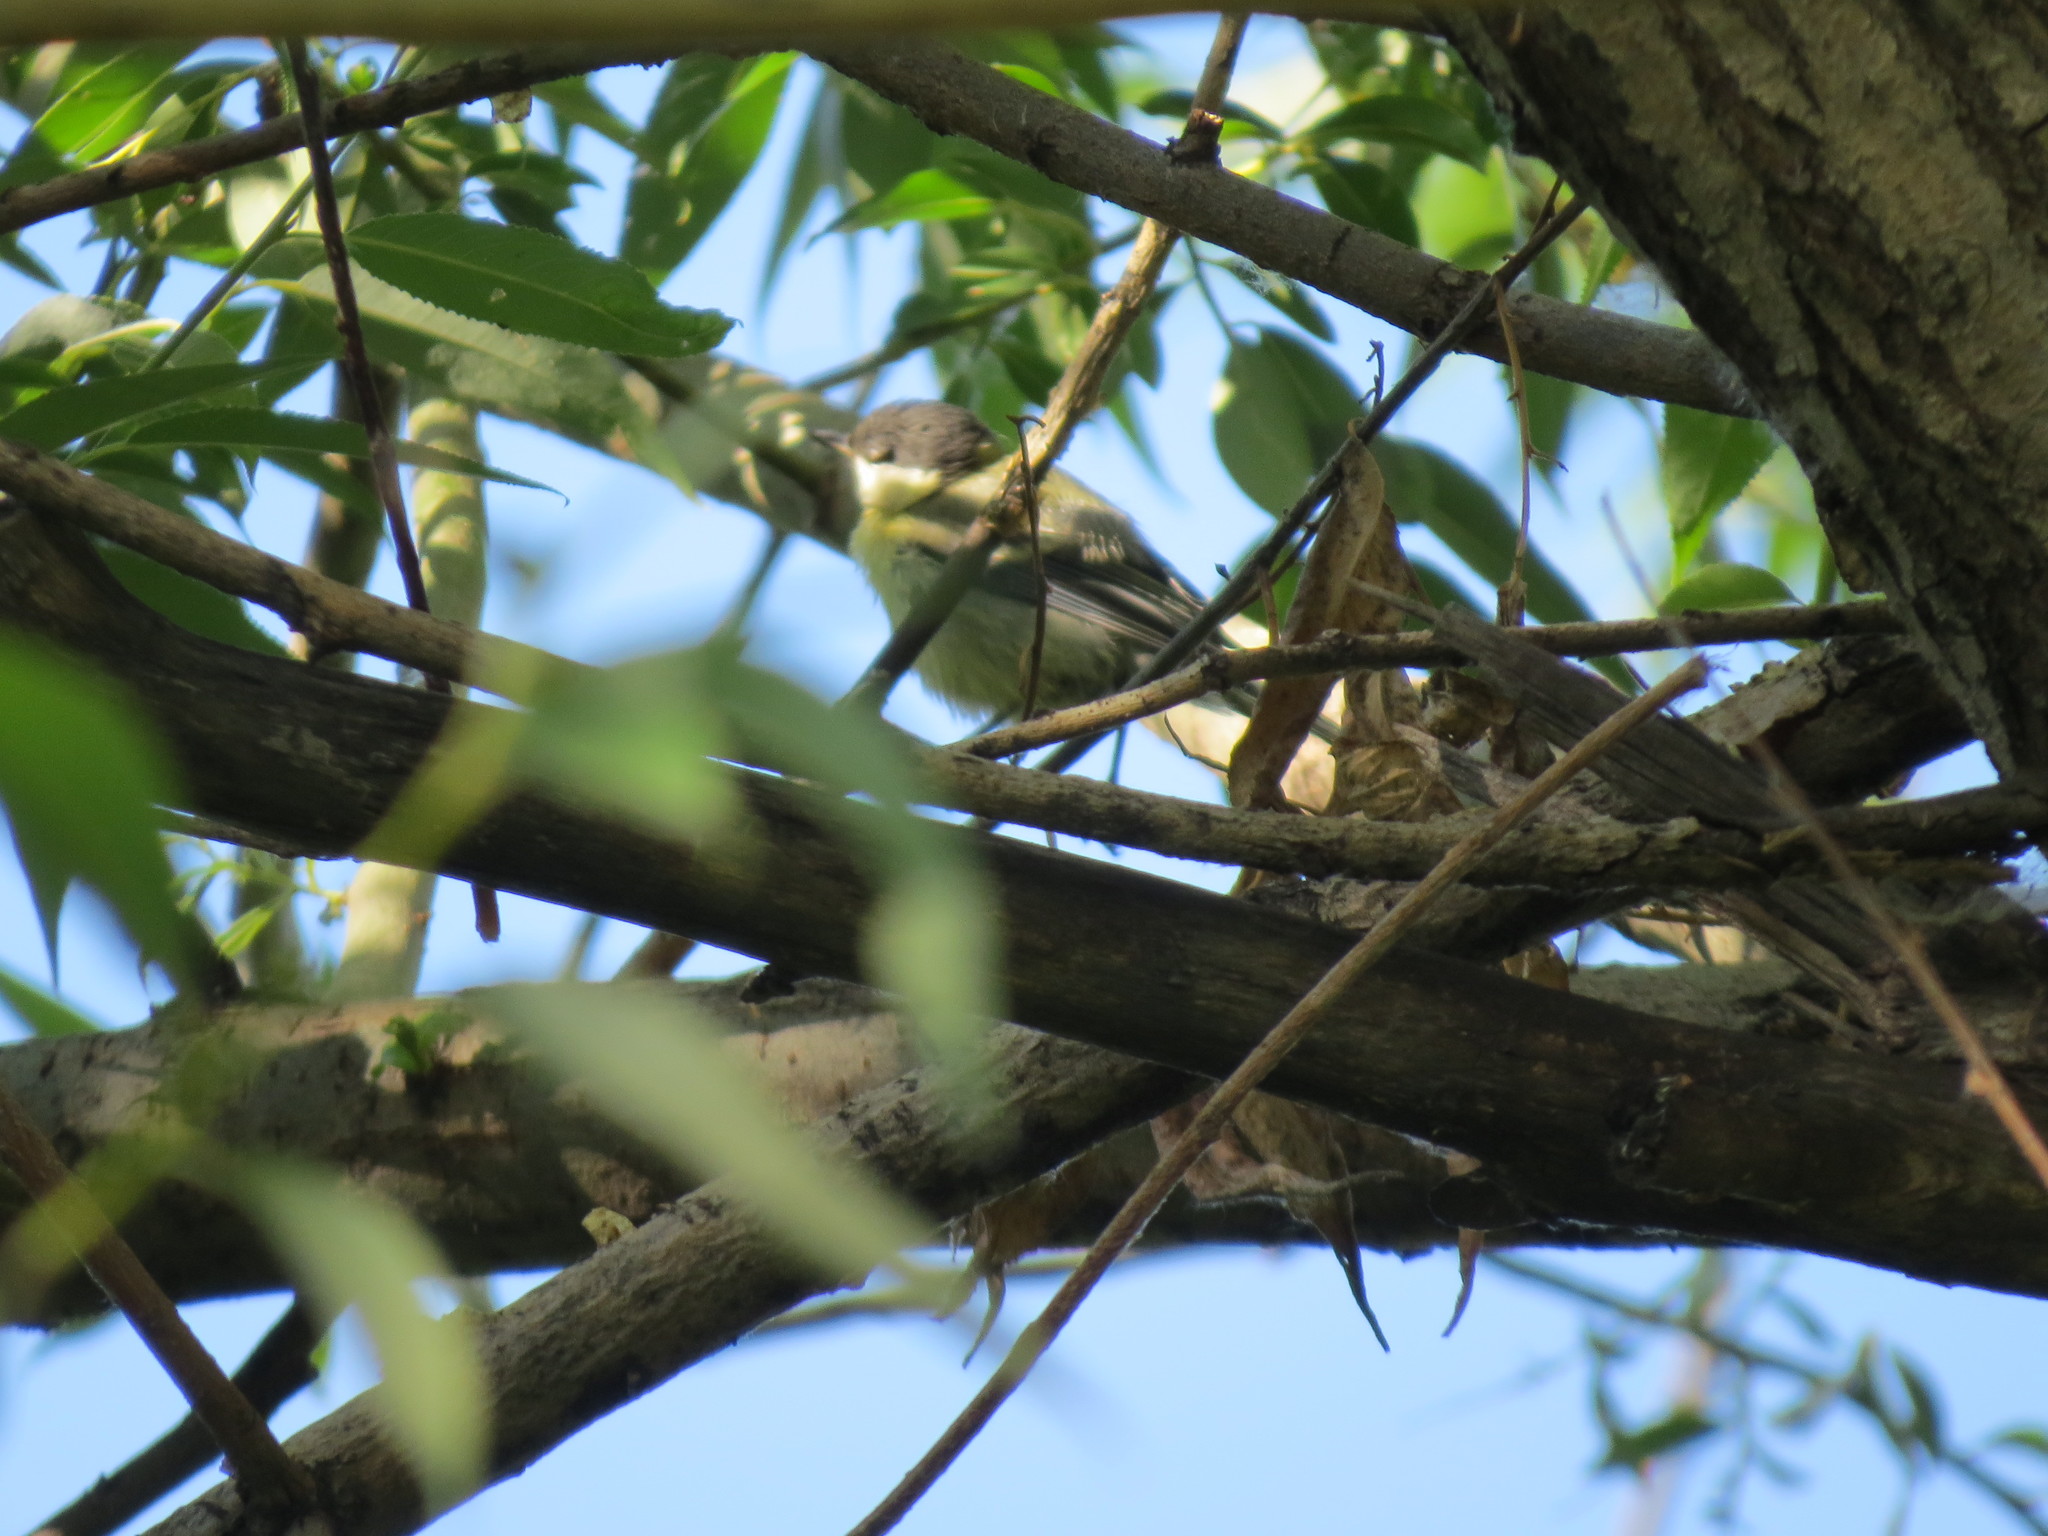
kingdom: Animalia
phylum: Chordata
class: Aves
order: Passeriformes
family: Paridae
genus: Parus
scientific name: Parus major
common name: Great tit
